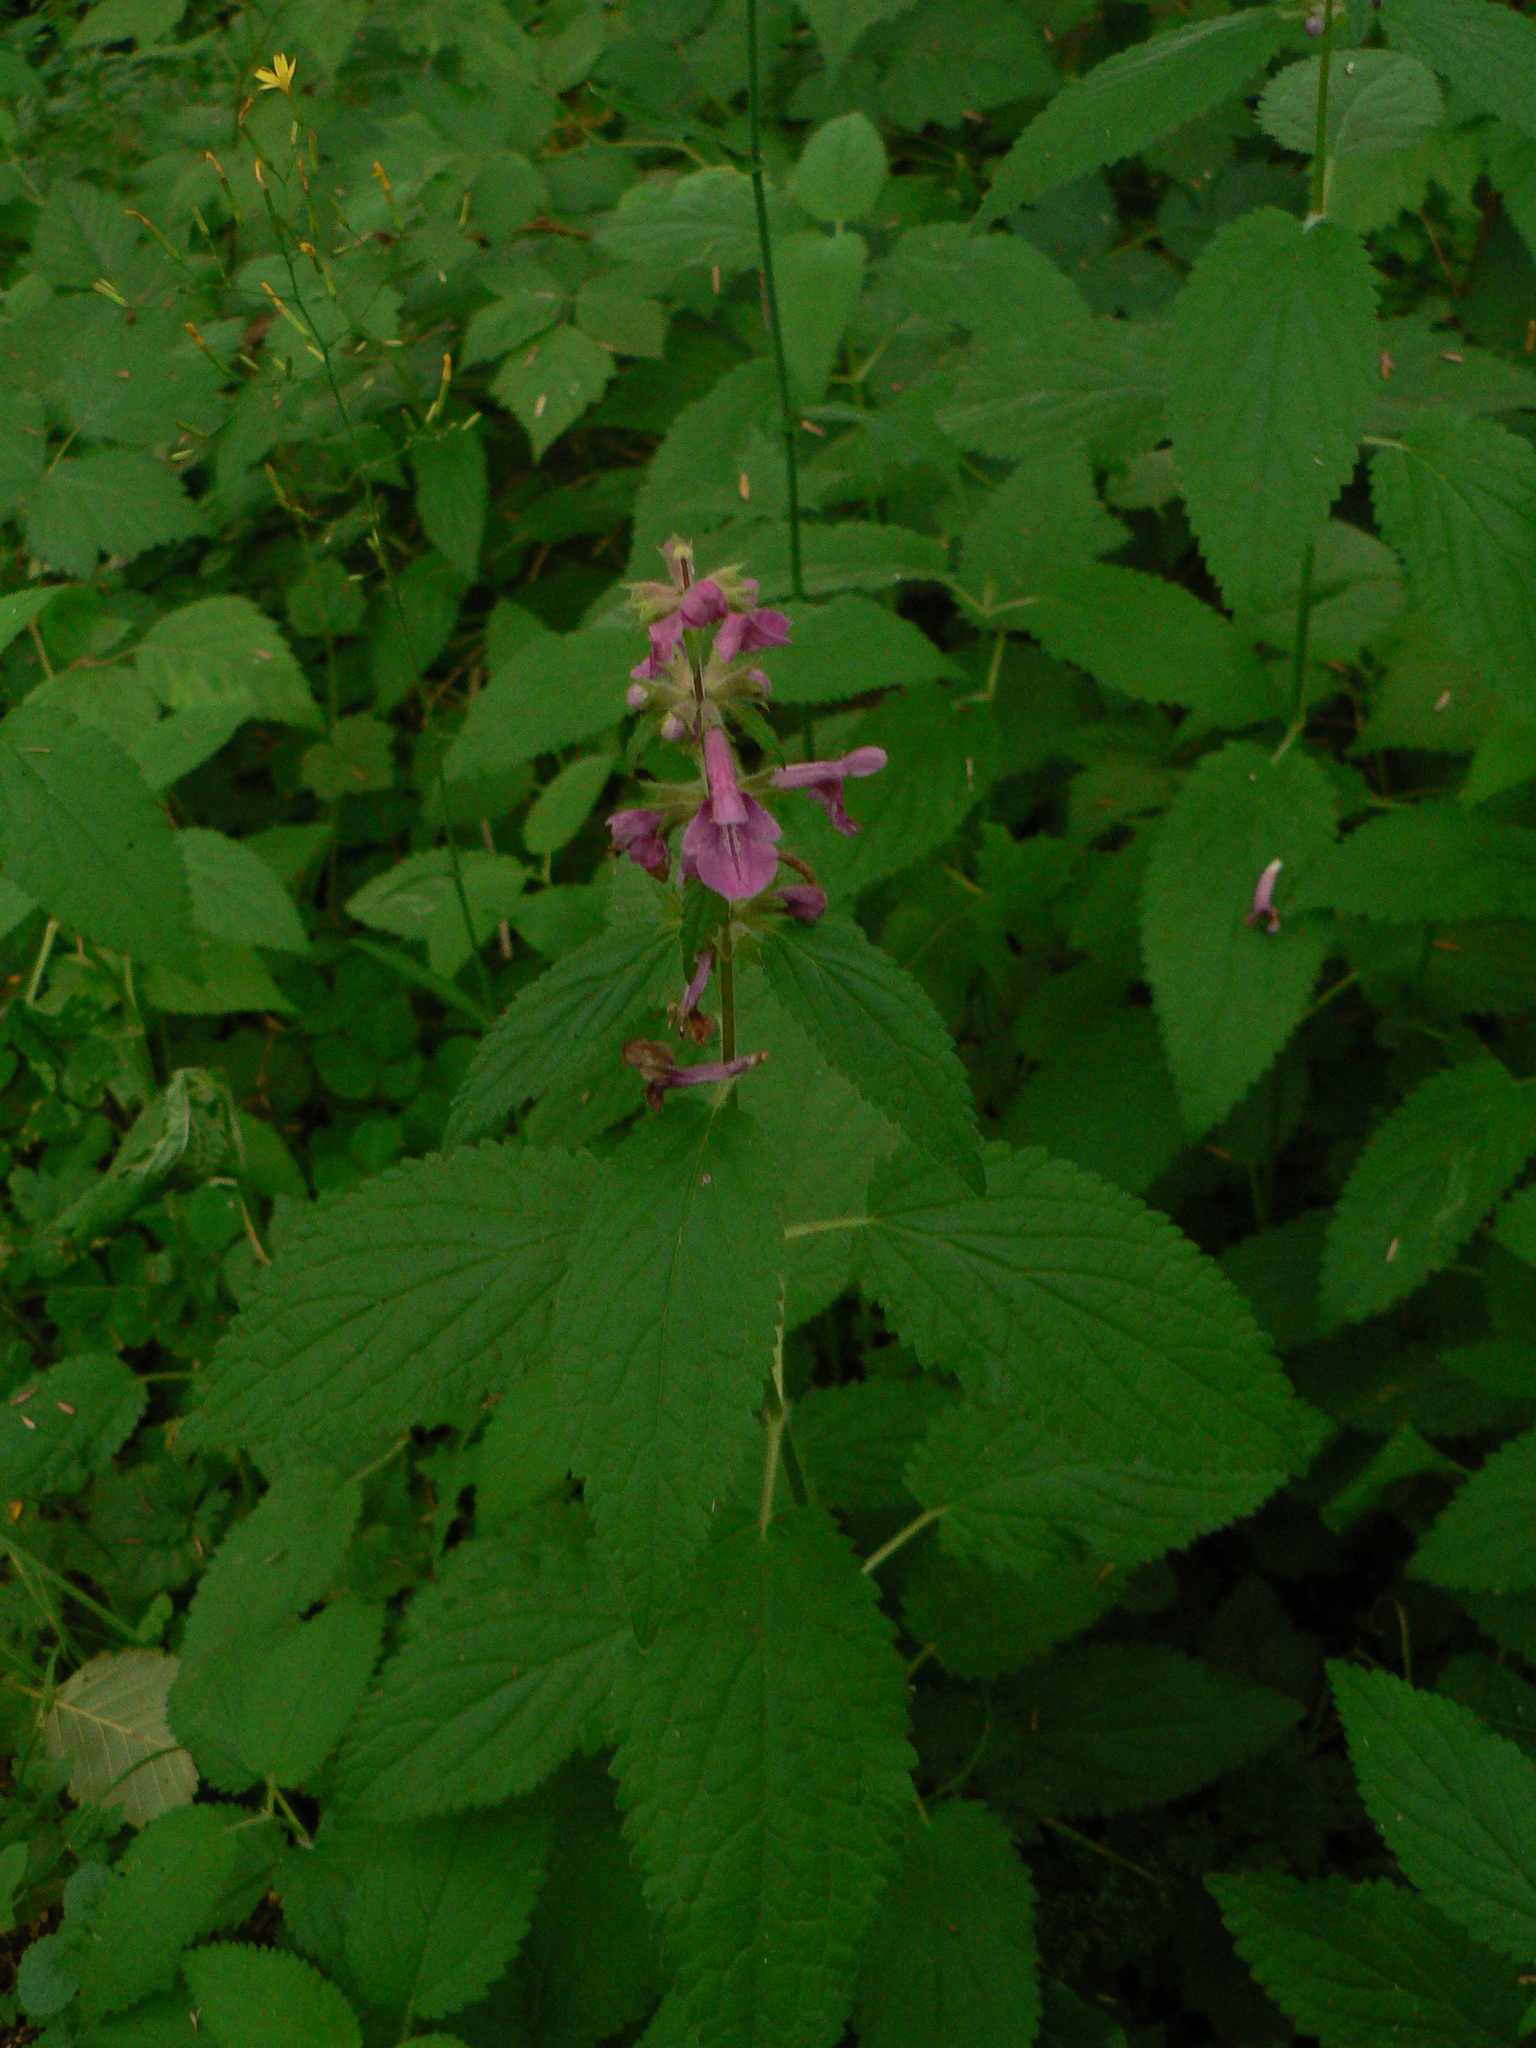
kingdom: Plantae
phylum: Tracheophyta
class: Magnoliopsida
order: Lamiales
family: Lamiaceae
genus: Stachys
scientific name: Stachys chamissonis
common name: Coastal hedge-nettle
